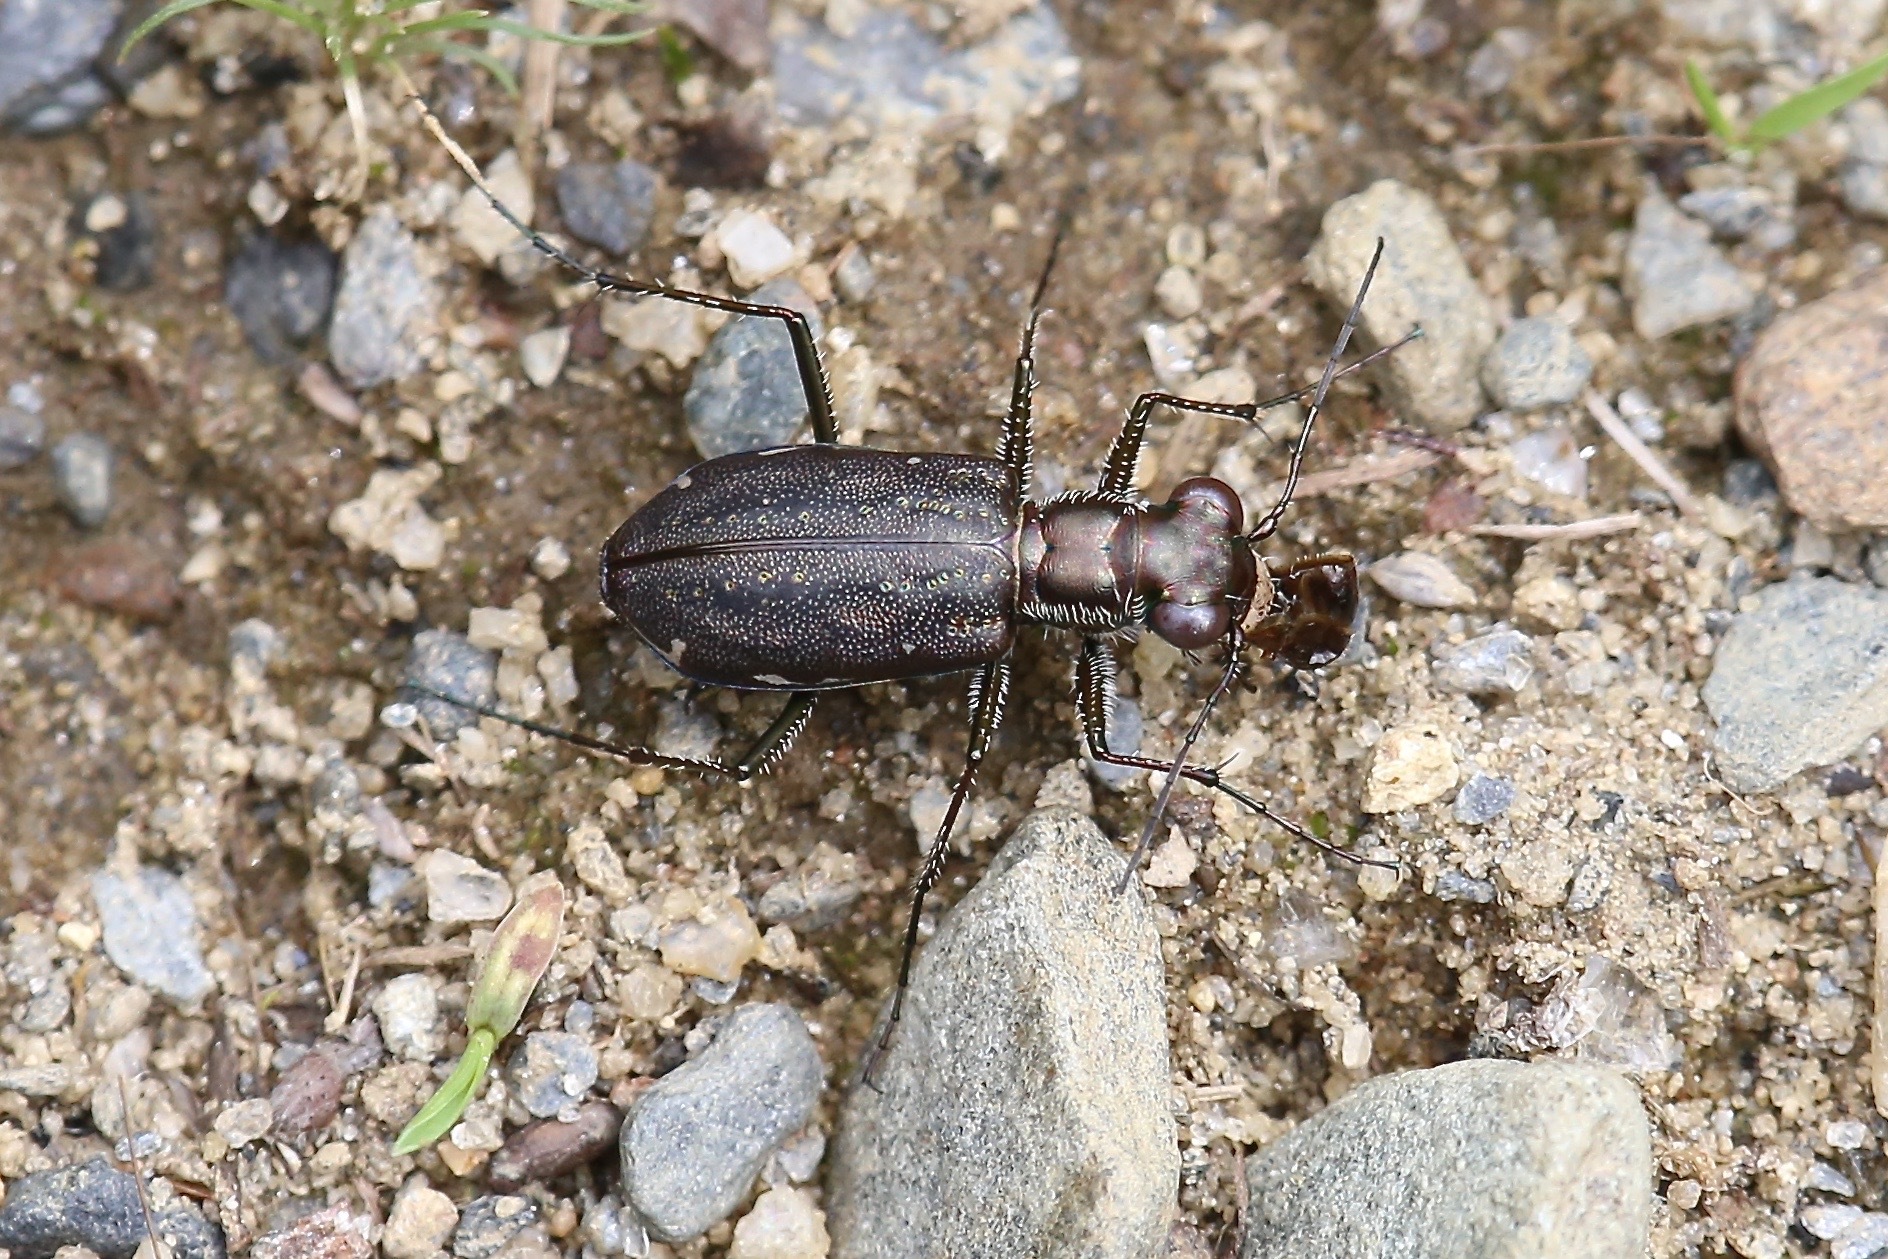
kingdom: Animalia
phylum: Arthropoda
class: Insecta
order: Coleoptera
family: Carabidae
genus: Cicindela
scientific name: Cicindela punctulata
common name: Punctured tiger beetle
